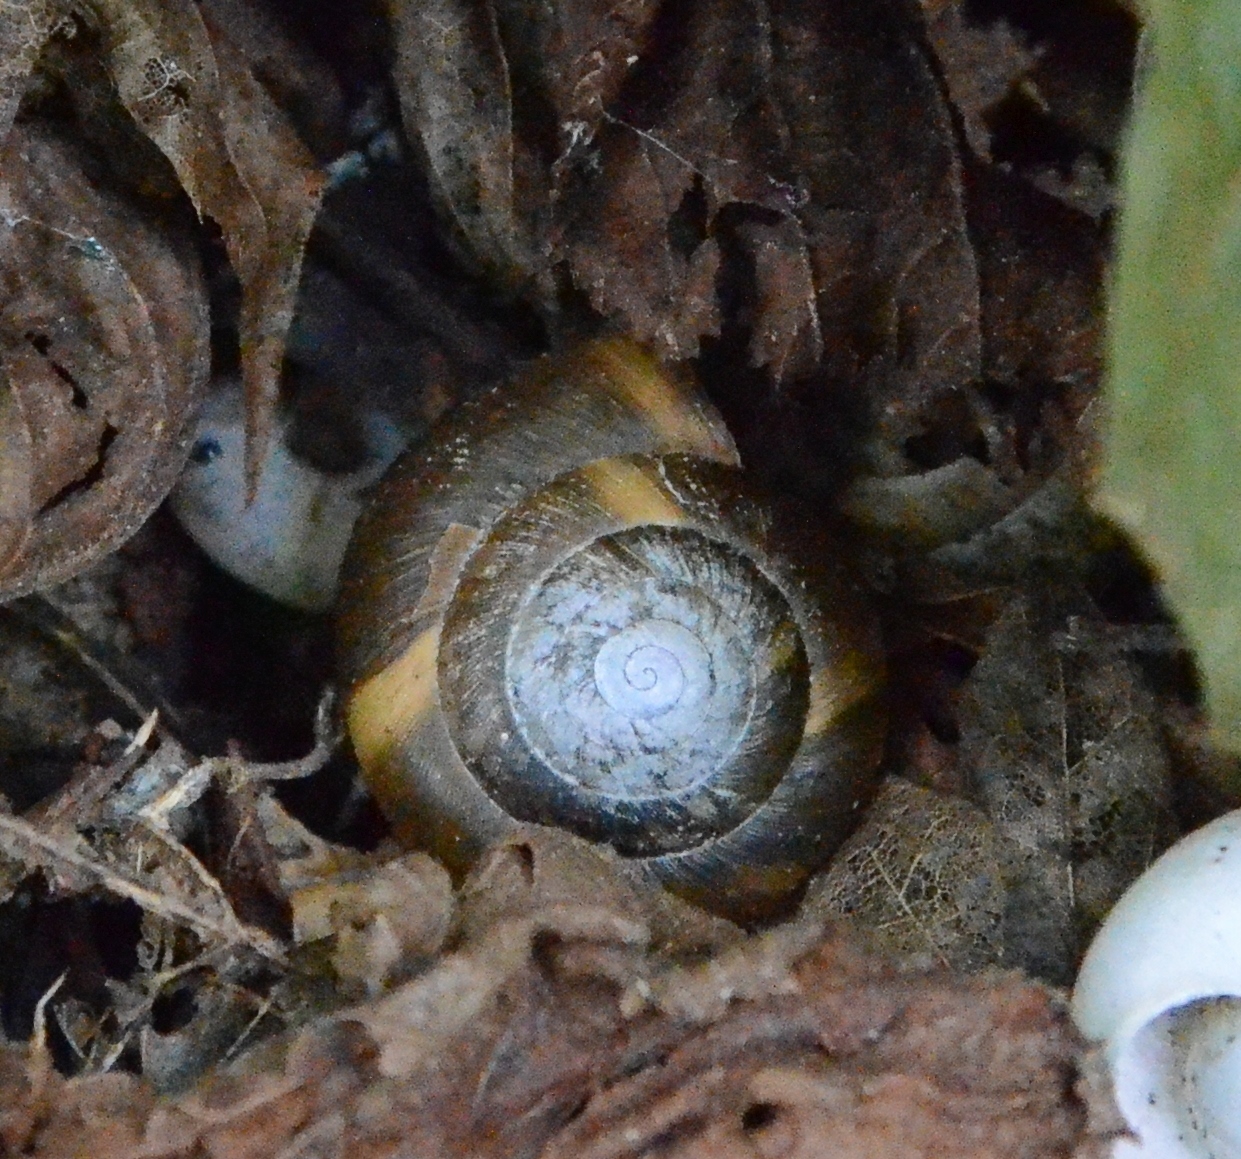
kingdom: Animalia
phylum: Mollusca
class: Gastropoda
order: Stylommatophora
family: Zonitidae
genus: Aegopis
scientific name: Aegopis verticillus
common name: Giant glass snail
